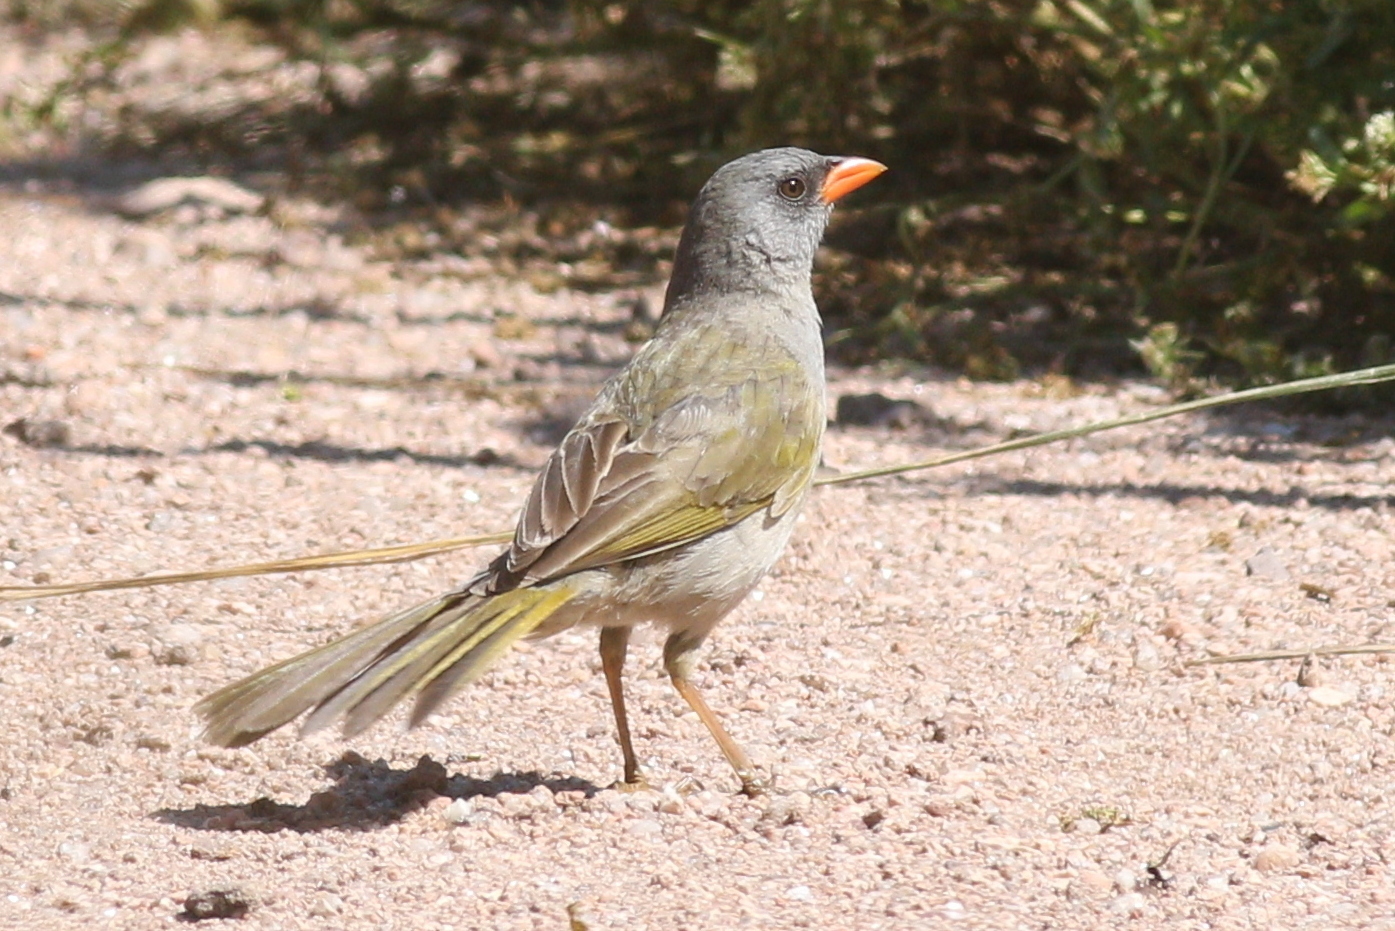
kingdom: Animalia
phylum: Chordata
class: Aves
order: Passeriformes
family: Thraupidae
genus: Embernagra
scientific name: Embernagra platensis
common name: Pampa finch
